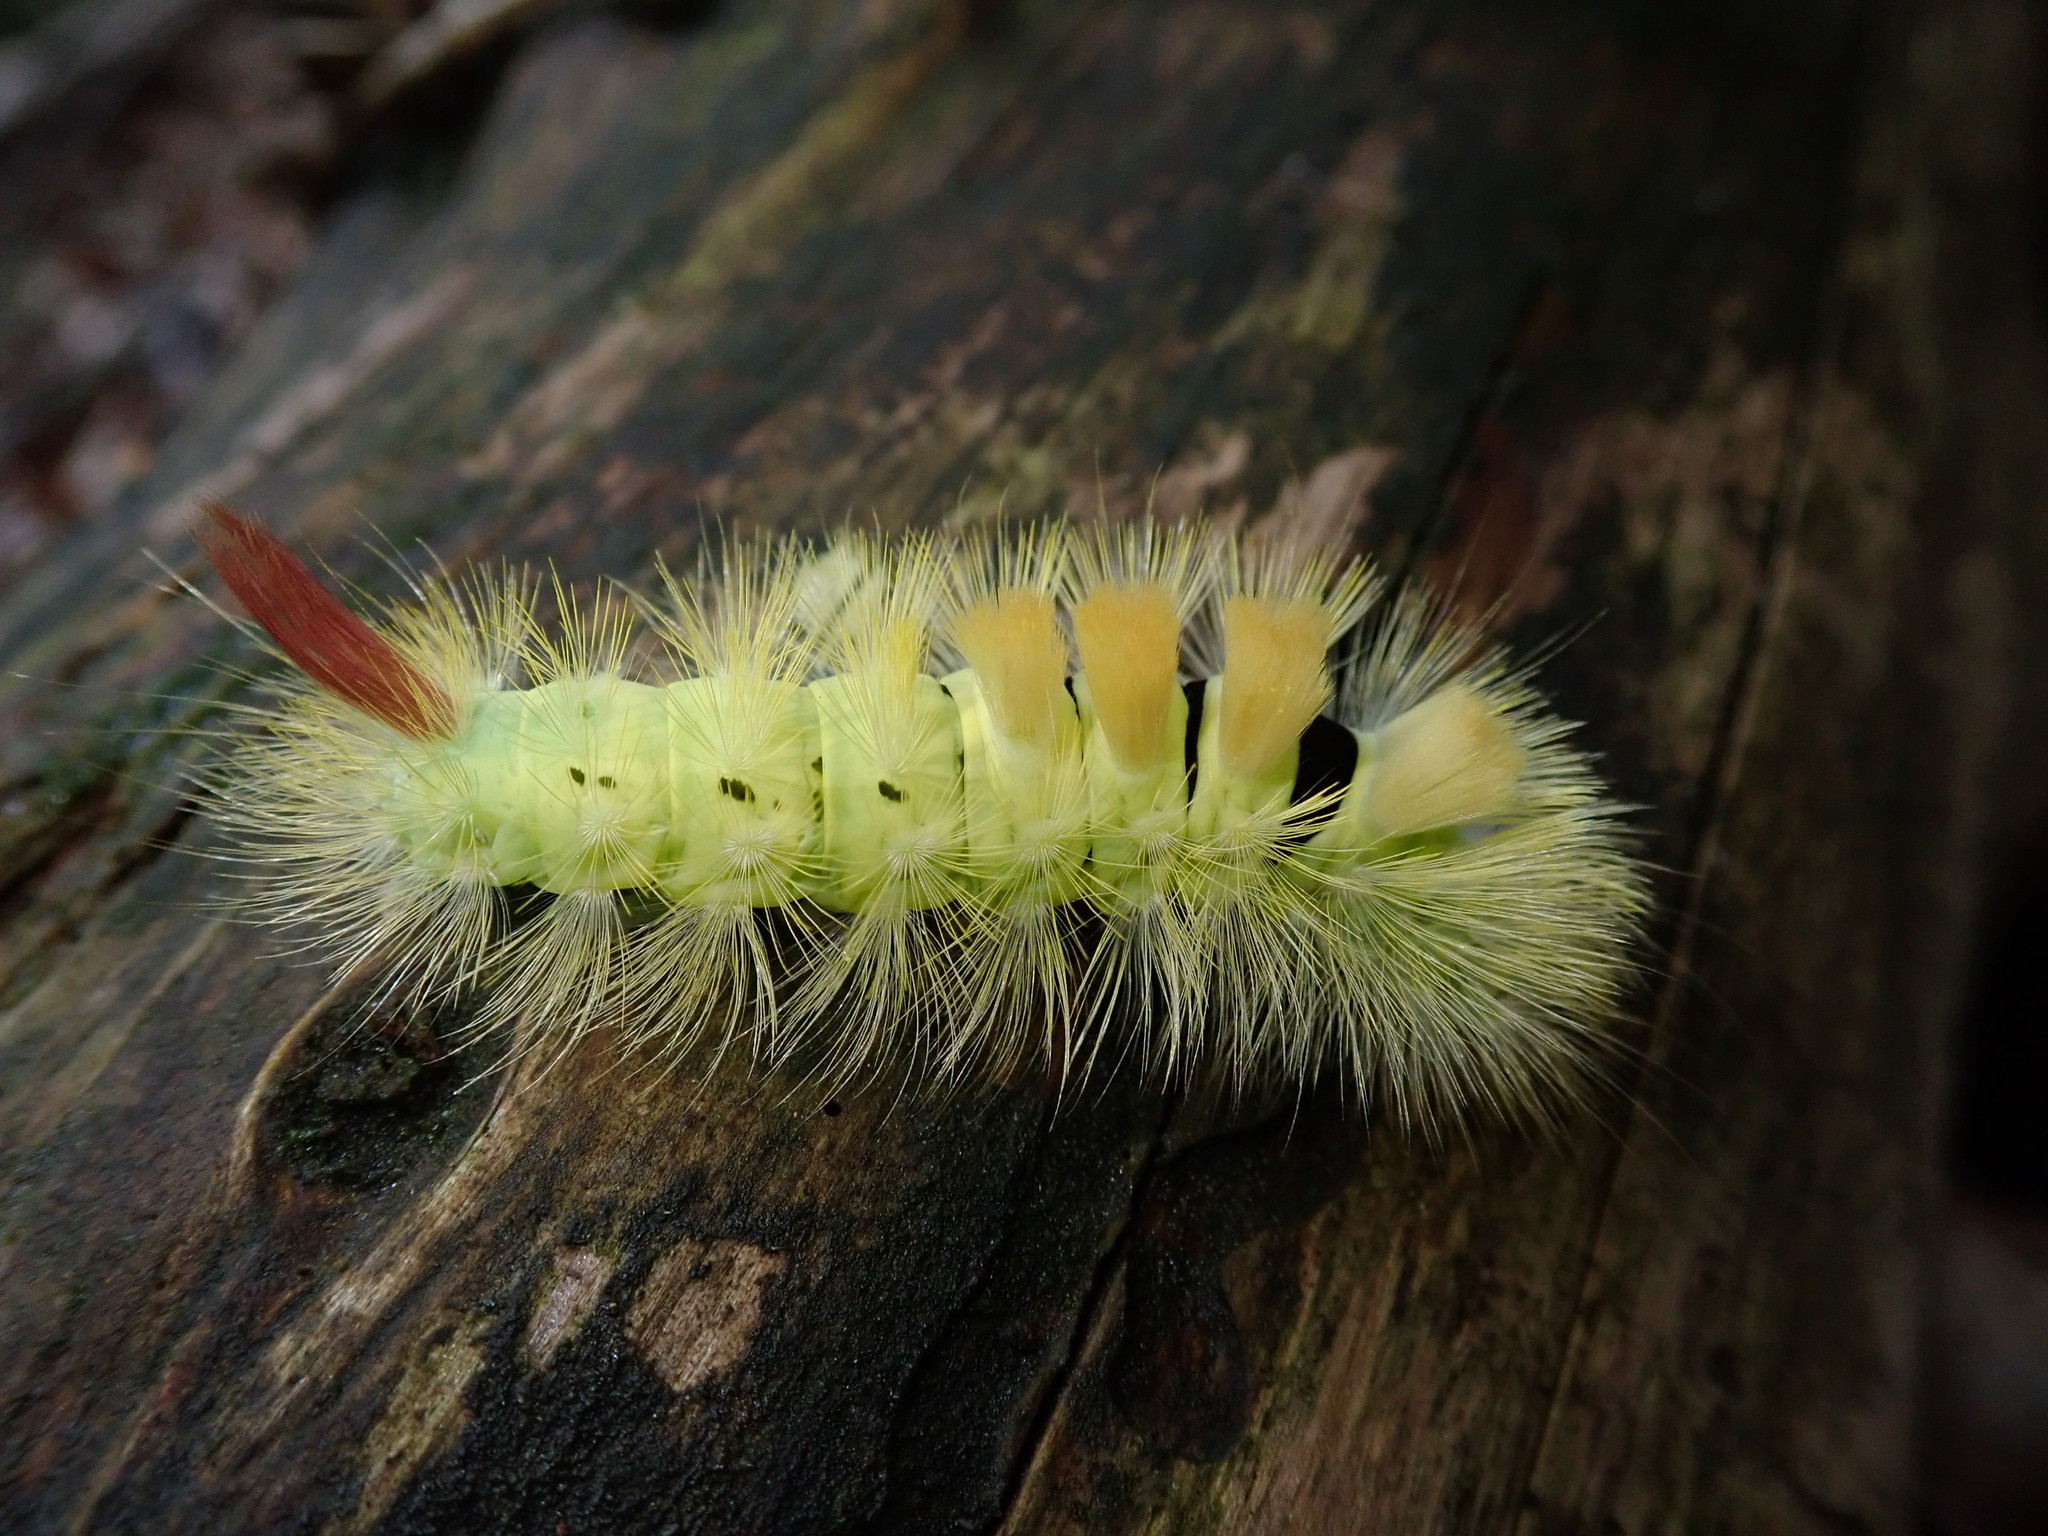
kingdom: Animalia
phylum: Arthropoda
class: Insecta
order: Lepidoptera
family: Erebidae
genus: Calliteara
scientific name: Calliteara pudibunda
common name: Pale tussock
